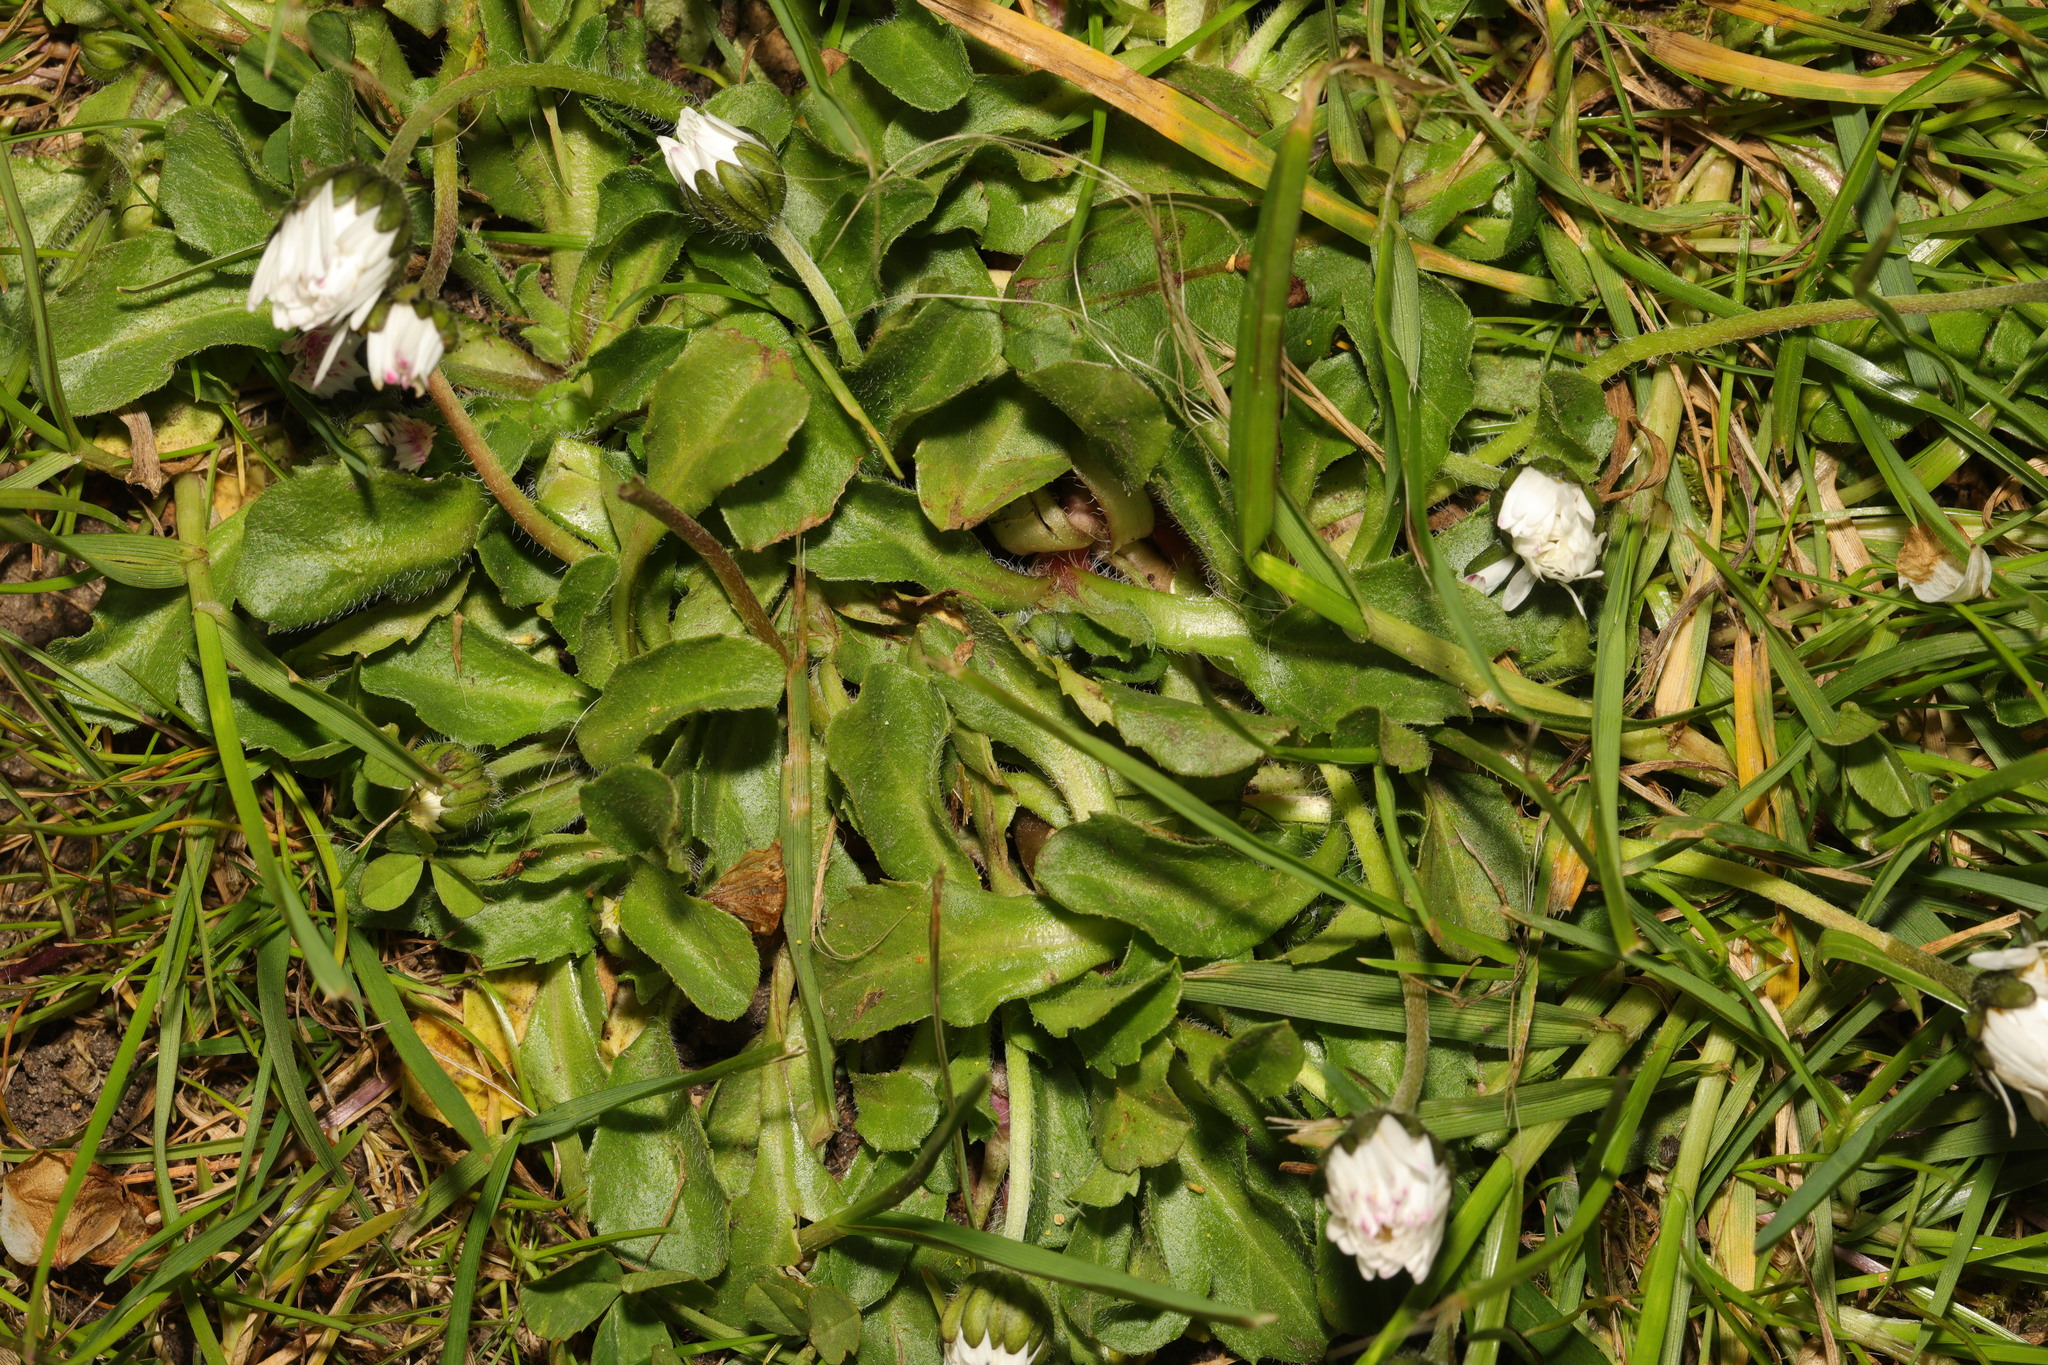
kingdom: Plantae
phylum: Tracheophyta
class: Magnoliopsida
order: Asterales
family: Asteraceae
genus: Bellis
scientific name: Bellis perennis
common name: Lawndaisy
